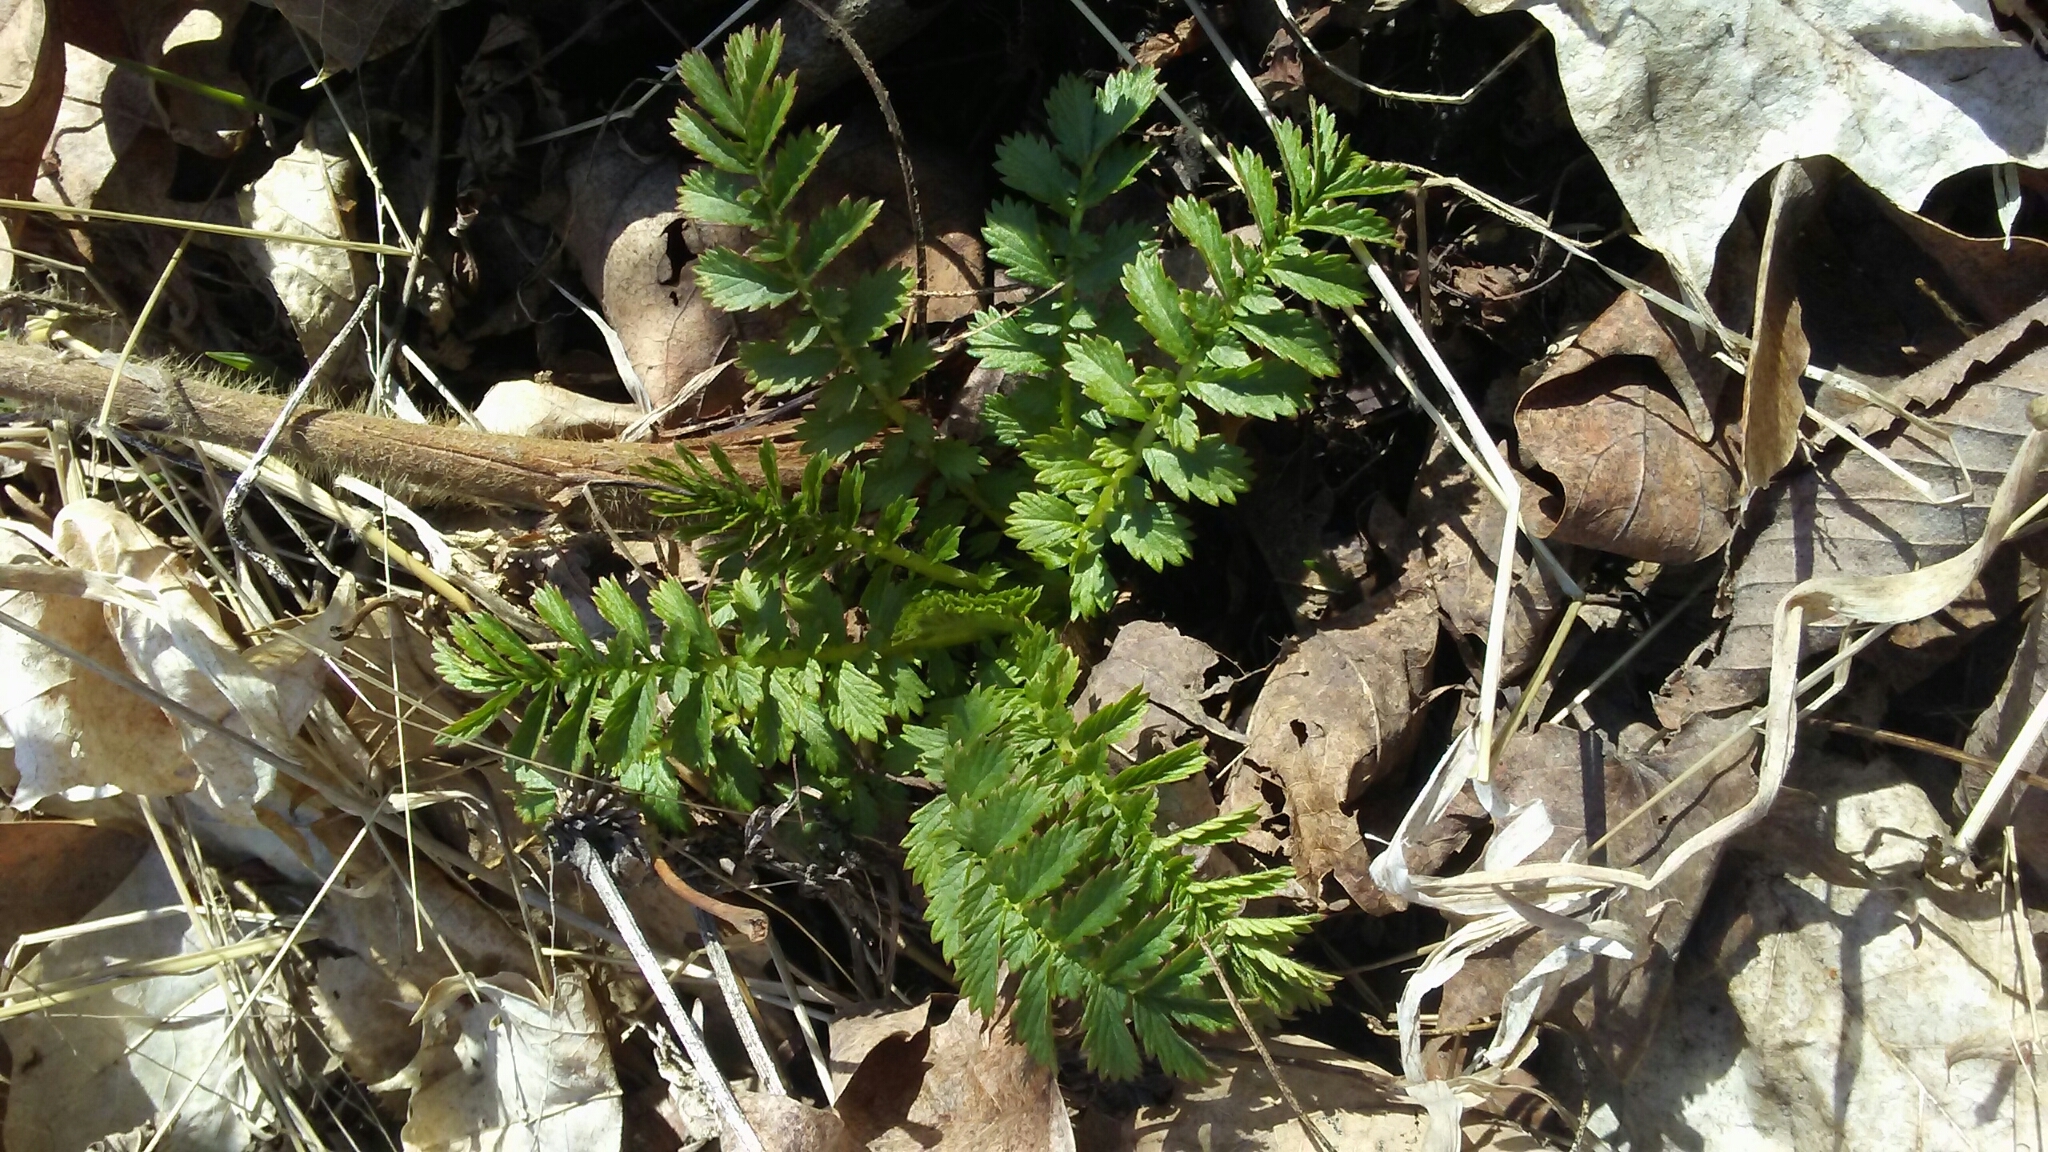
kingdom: Plantae
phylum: Tracheophyta
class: Magnoliopsida
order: Rosales
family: Rosaceae
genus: Agrimonia
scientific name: Agrimonia parviflora
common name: Harvest-lice
